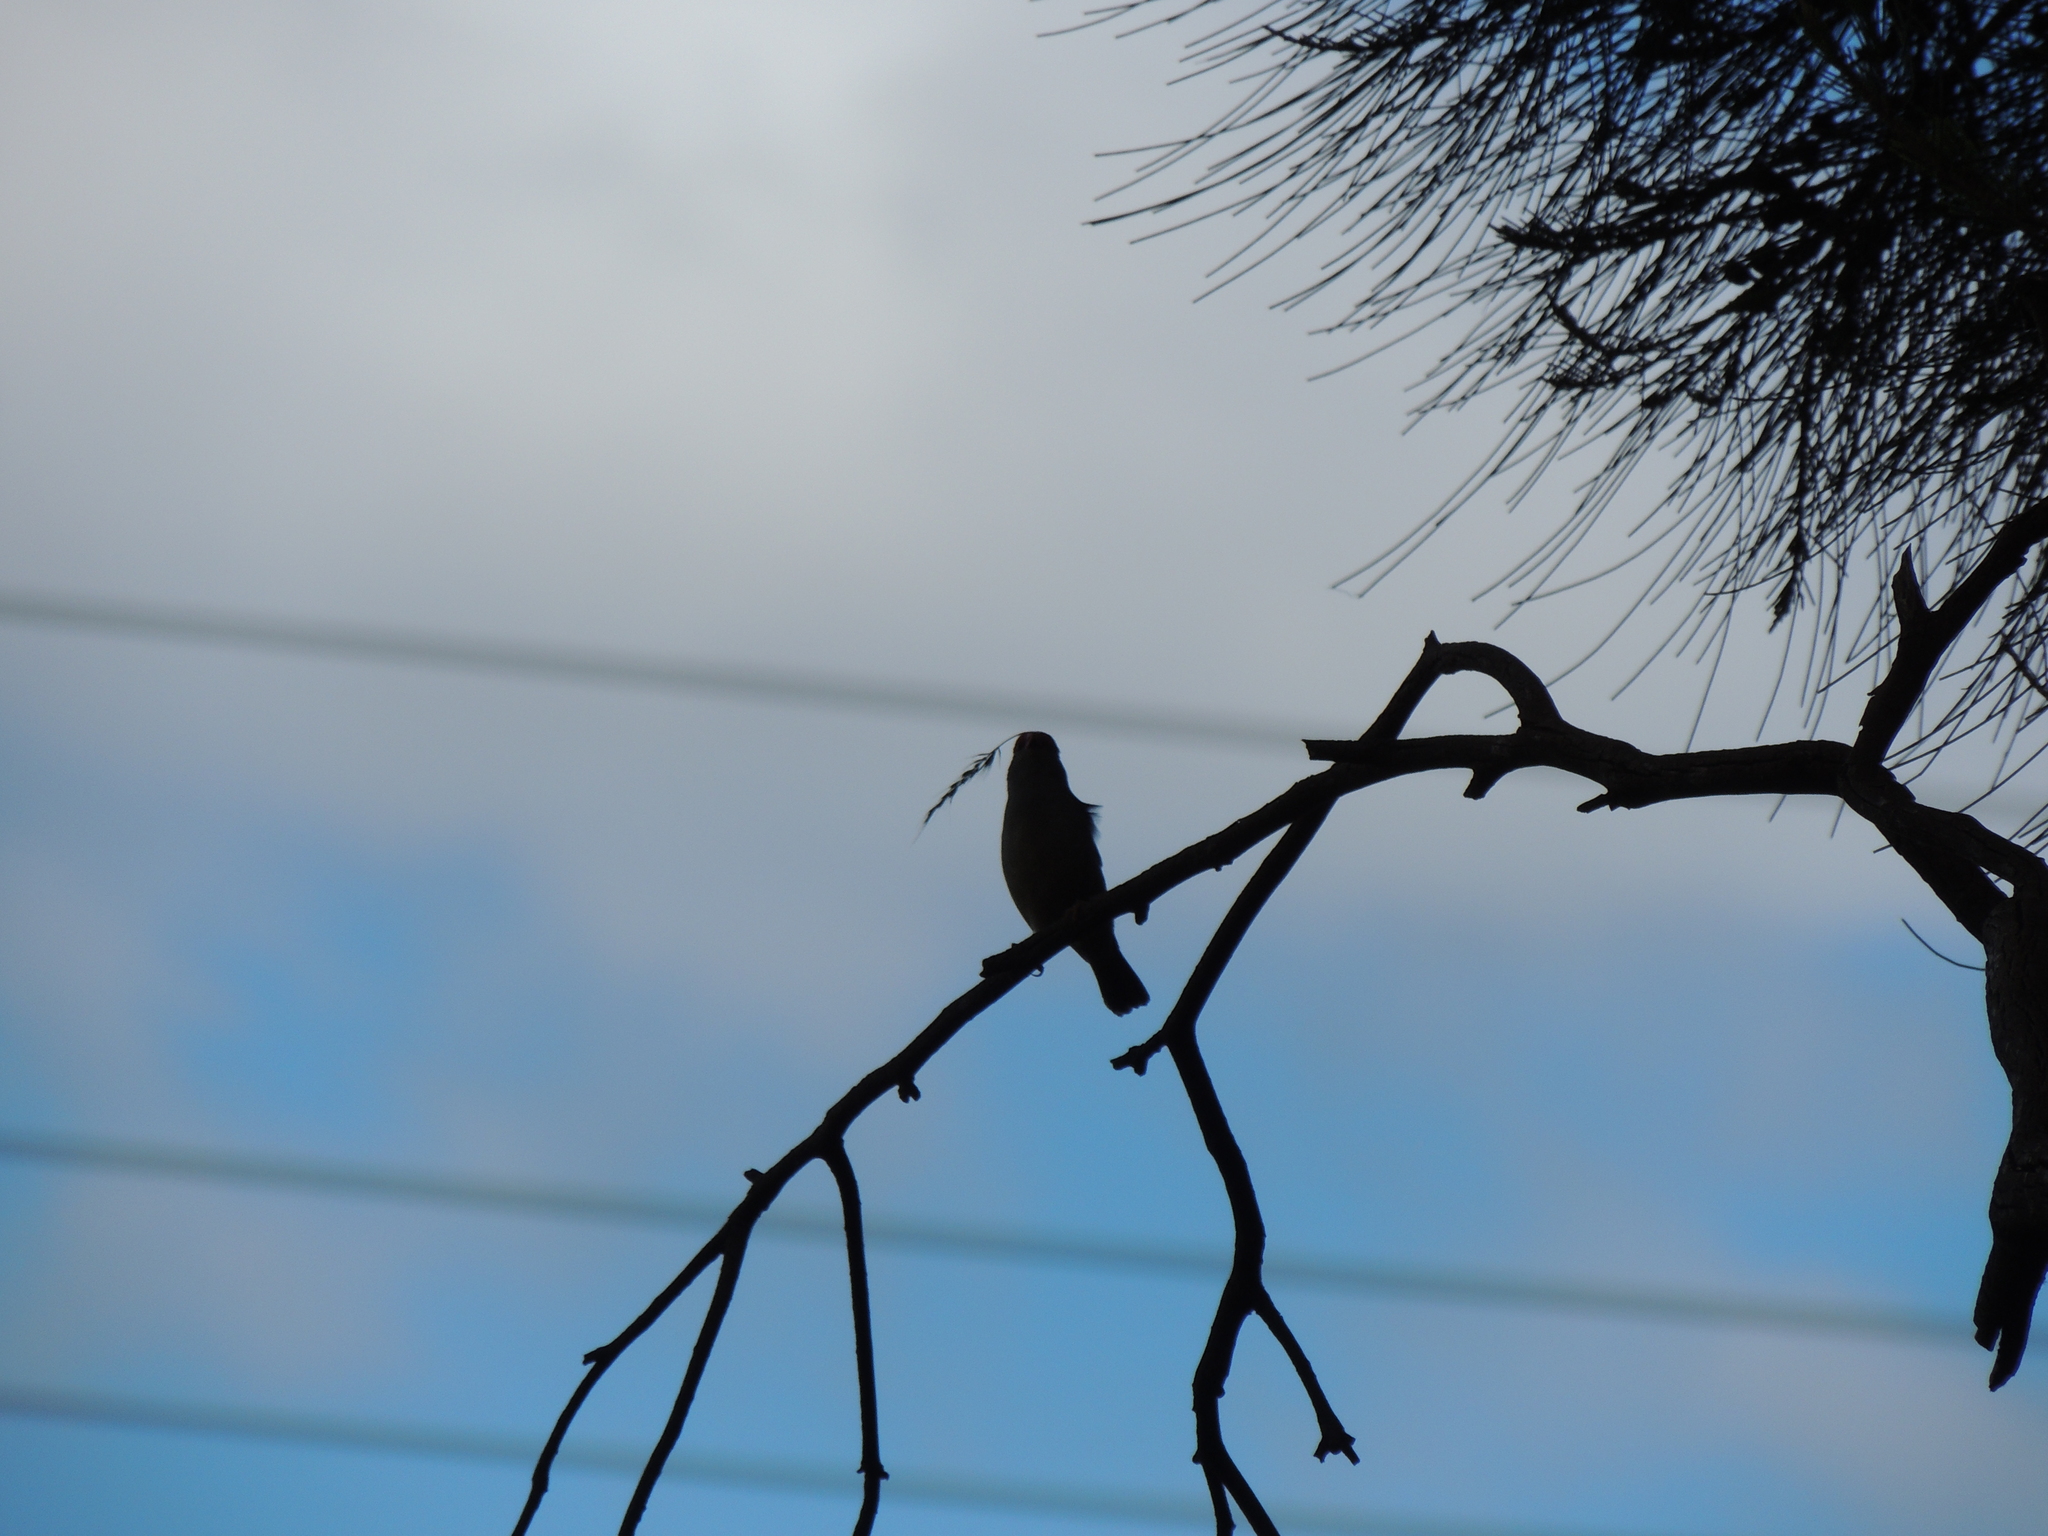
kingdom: Animalia
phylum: Chordata
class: Aves
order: Passeriformes
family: Estrildidae
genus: Neochmia
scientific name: Neochmia temporalis
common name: Red-browed finch
